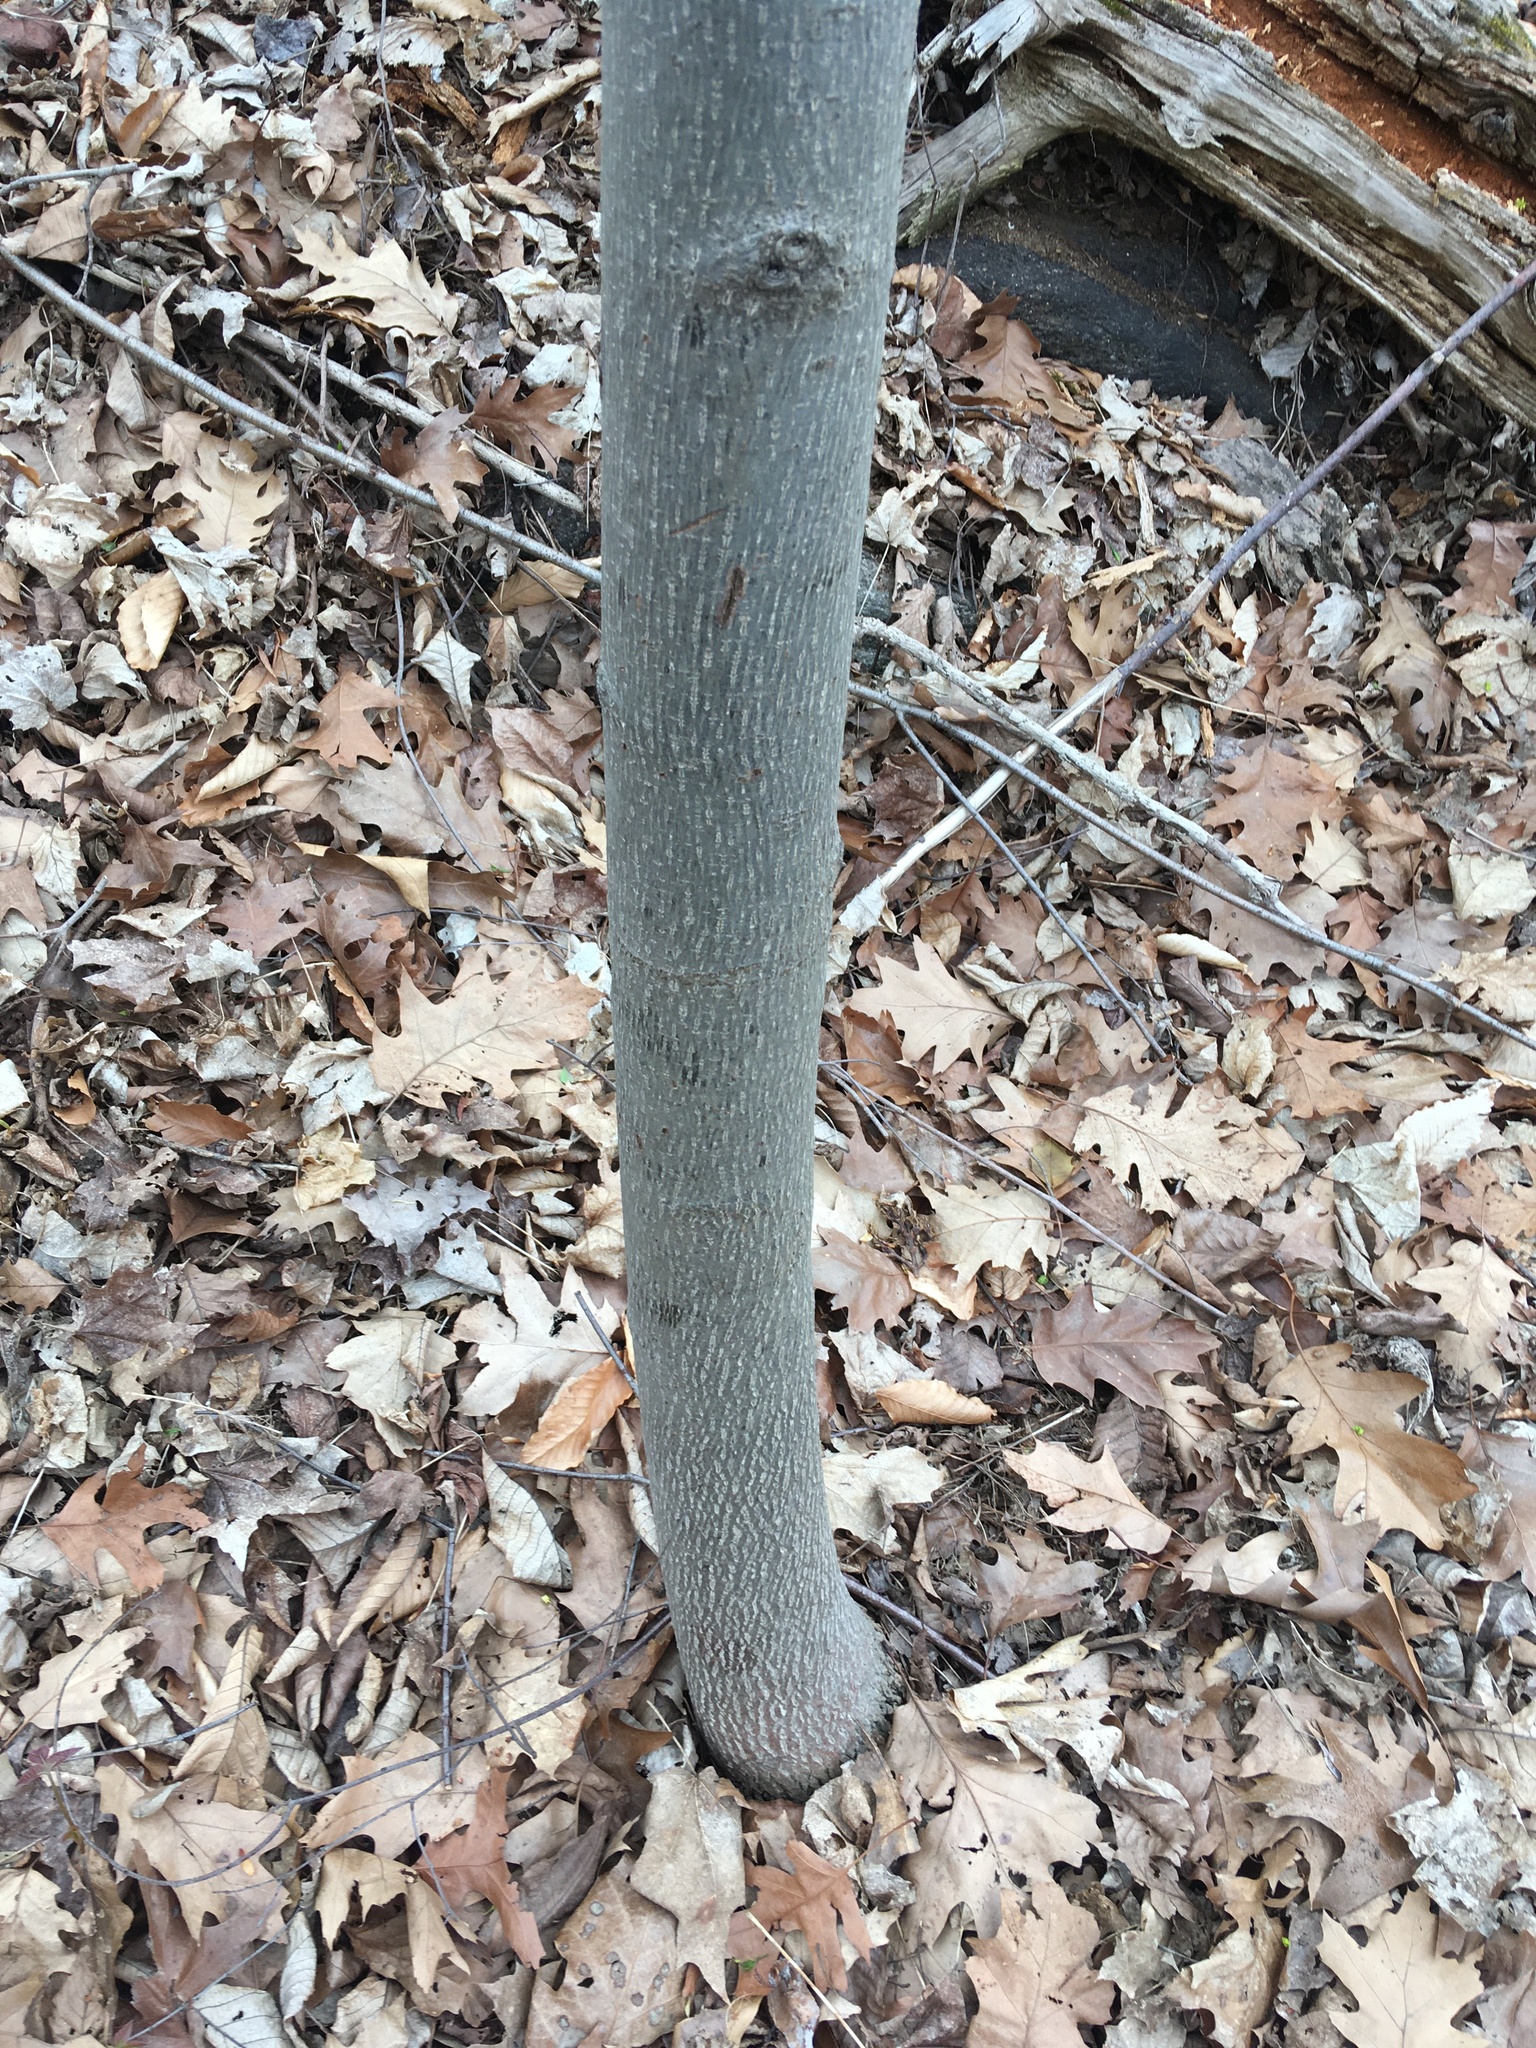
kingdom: Plantae
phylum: Tracheophyta
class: Magnoliopsida
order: Magnoliales
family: Magnoliaceae
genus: Liriodendron
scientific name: Liriodendron tulipifera
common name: Tulip tree
